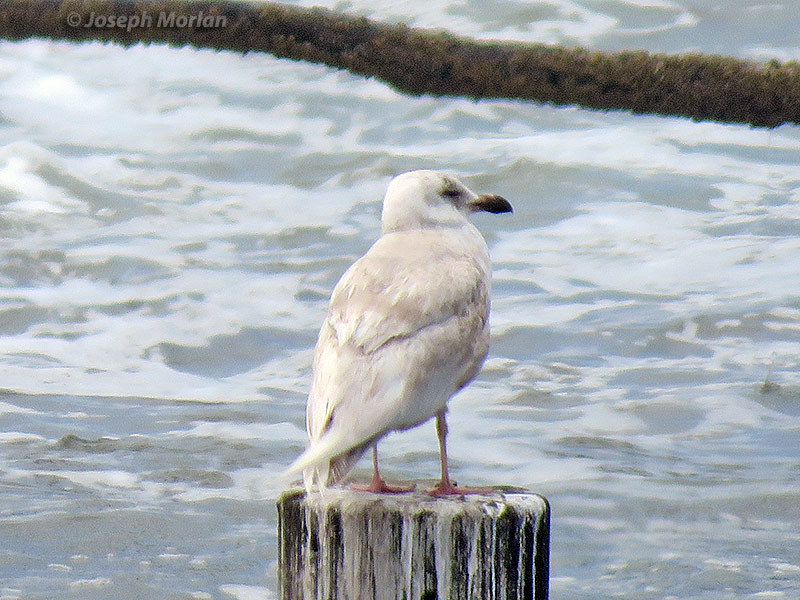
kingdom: Animalia
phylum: Chordata
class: Aves
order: Charadriiformes
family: Laridae
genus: Larus
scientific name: Larus glaucescens
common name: Glaucous-winged gull
